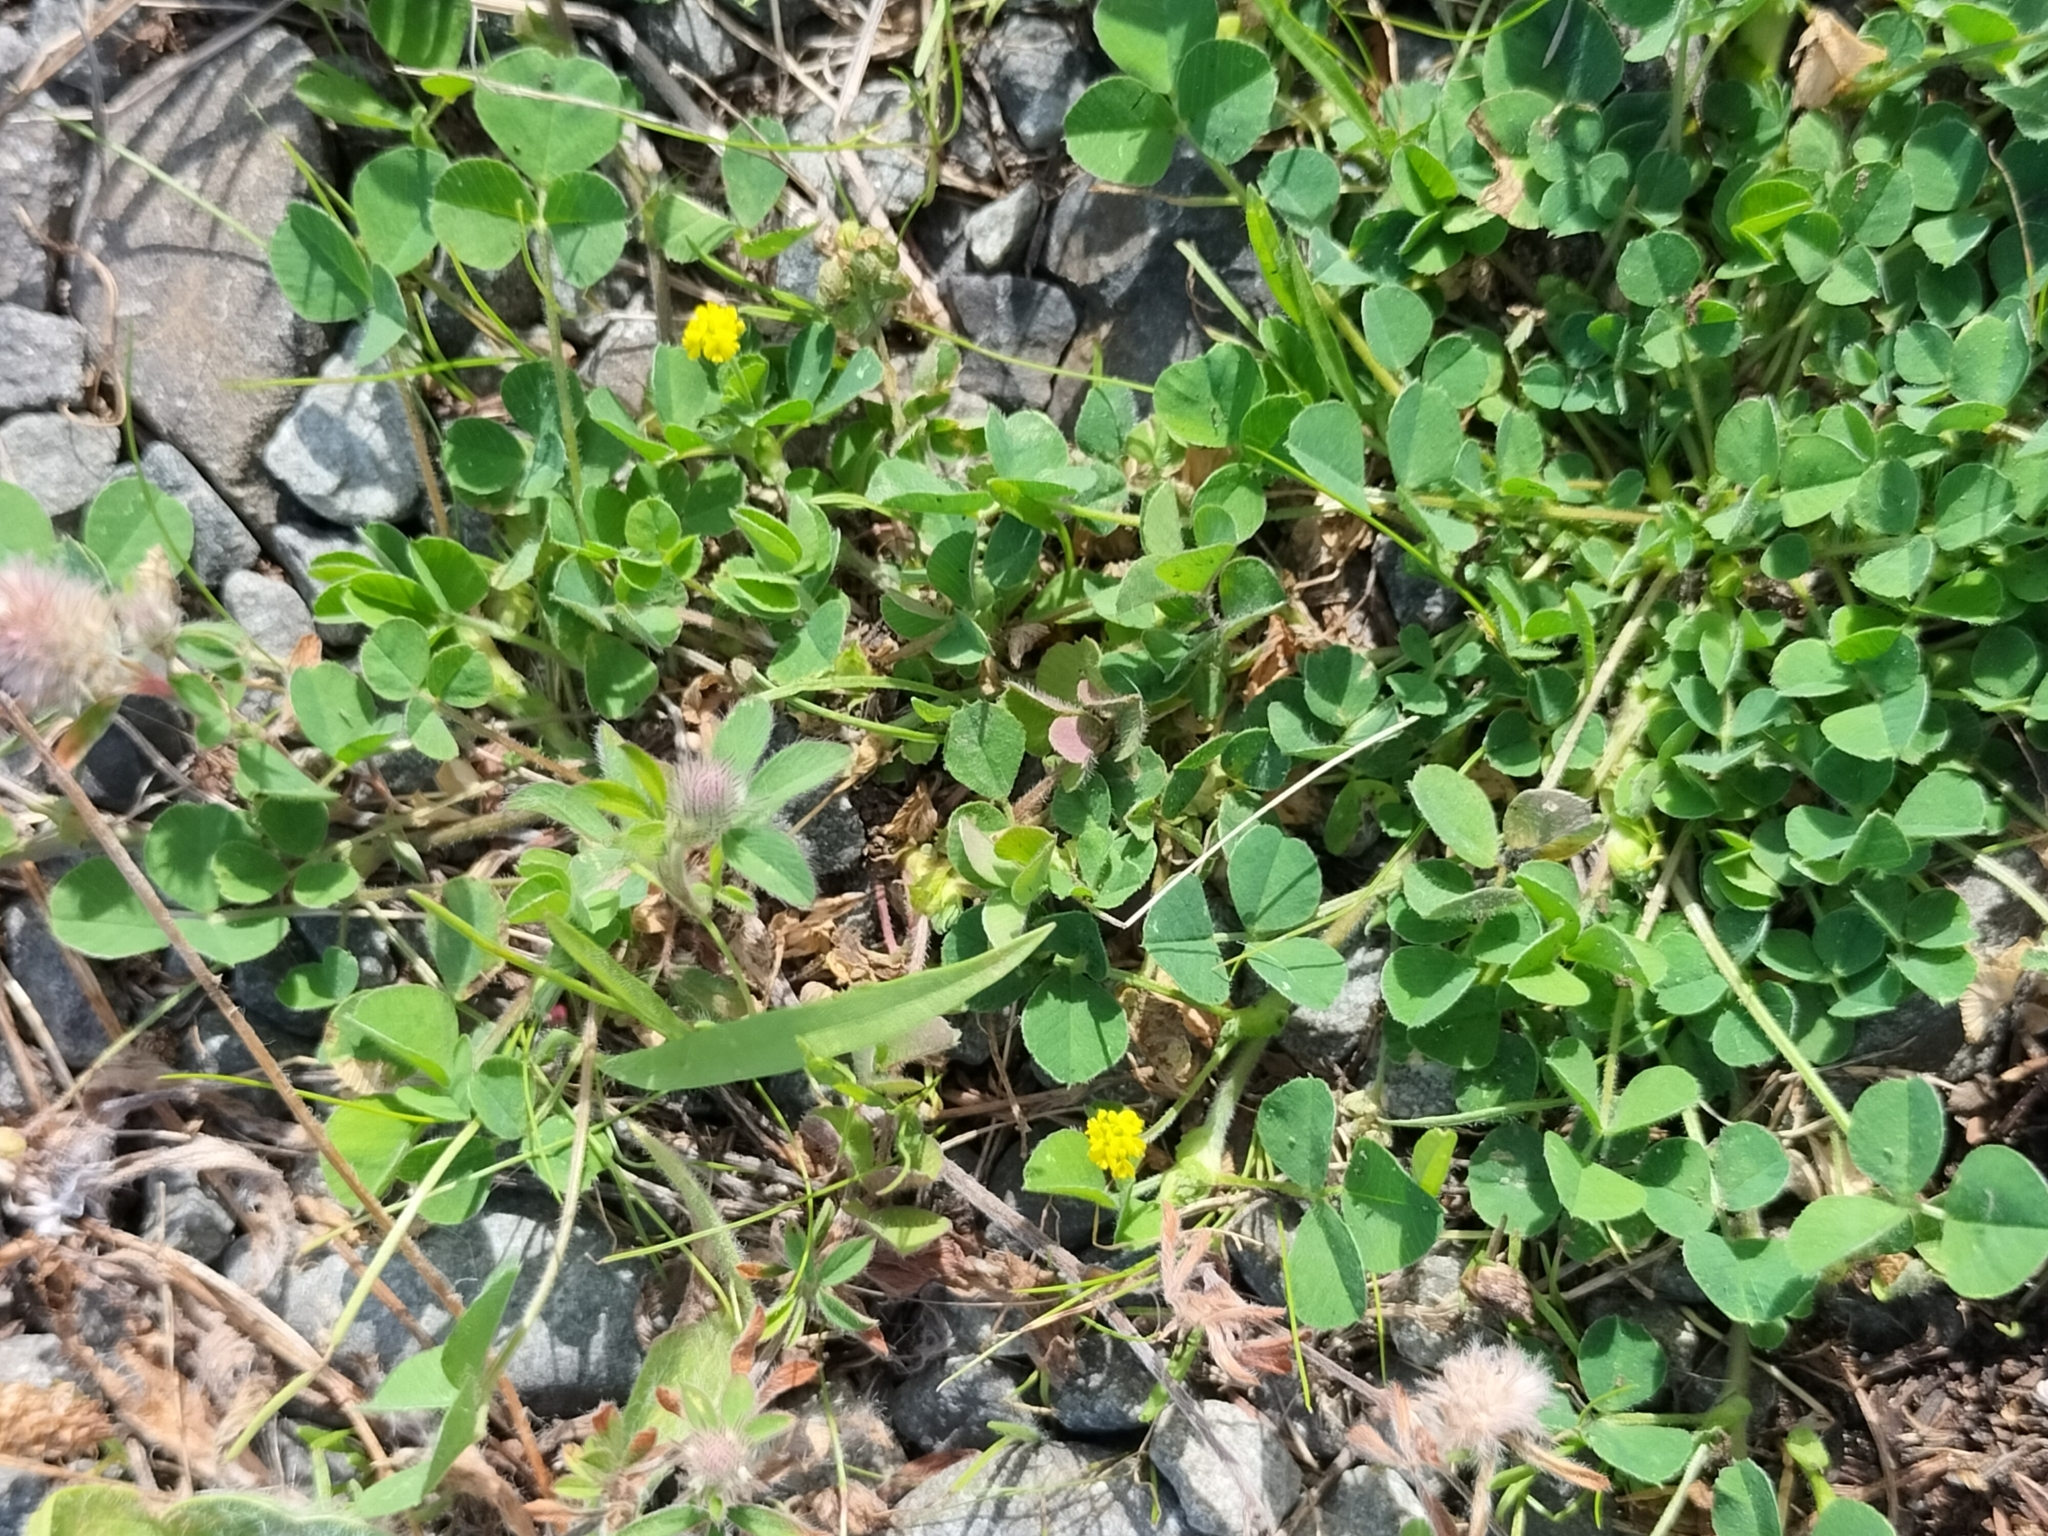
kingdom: Plantae
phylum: Tracheophyta
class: Magnoliopsida
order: Fabales
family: Fabaceae
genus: Medicago
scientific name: Medicago lupulina
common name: Black medick
